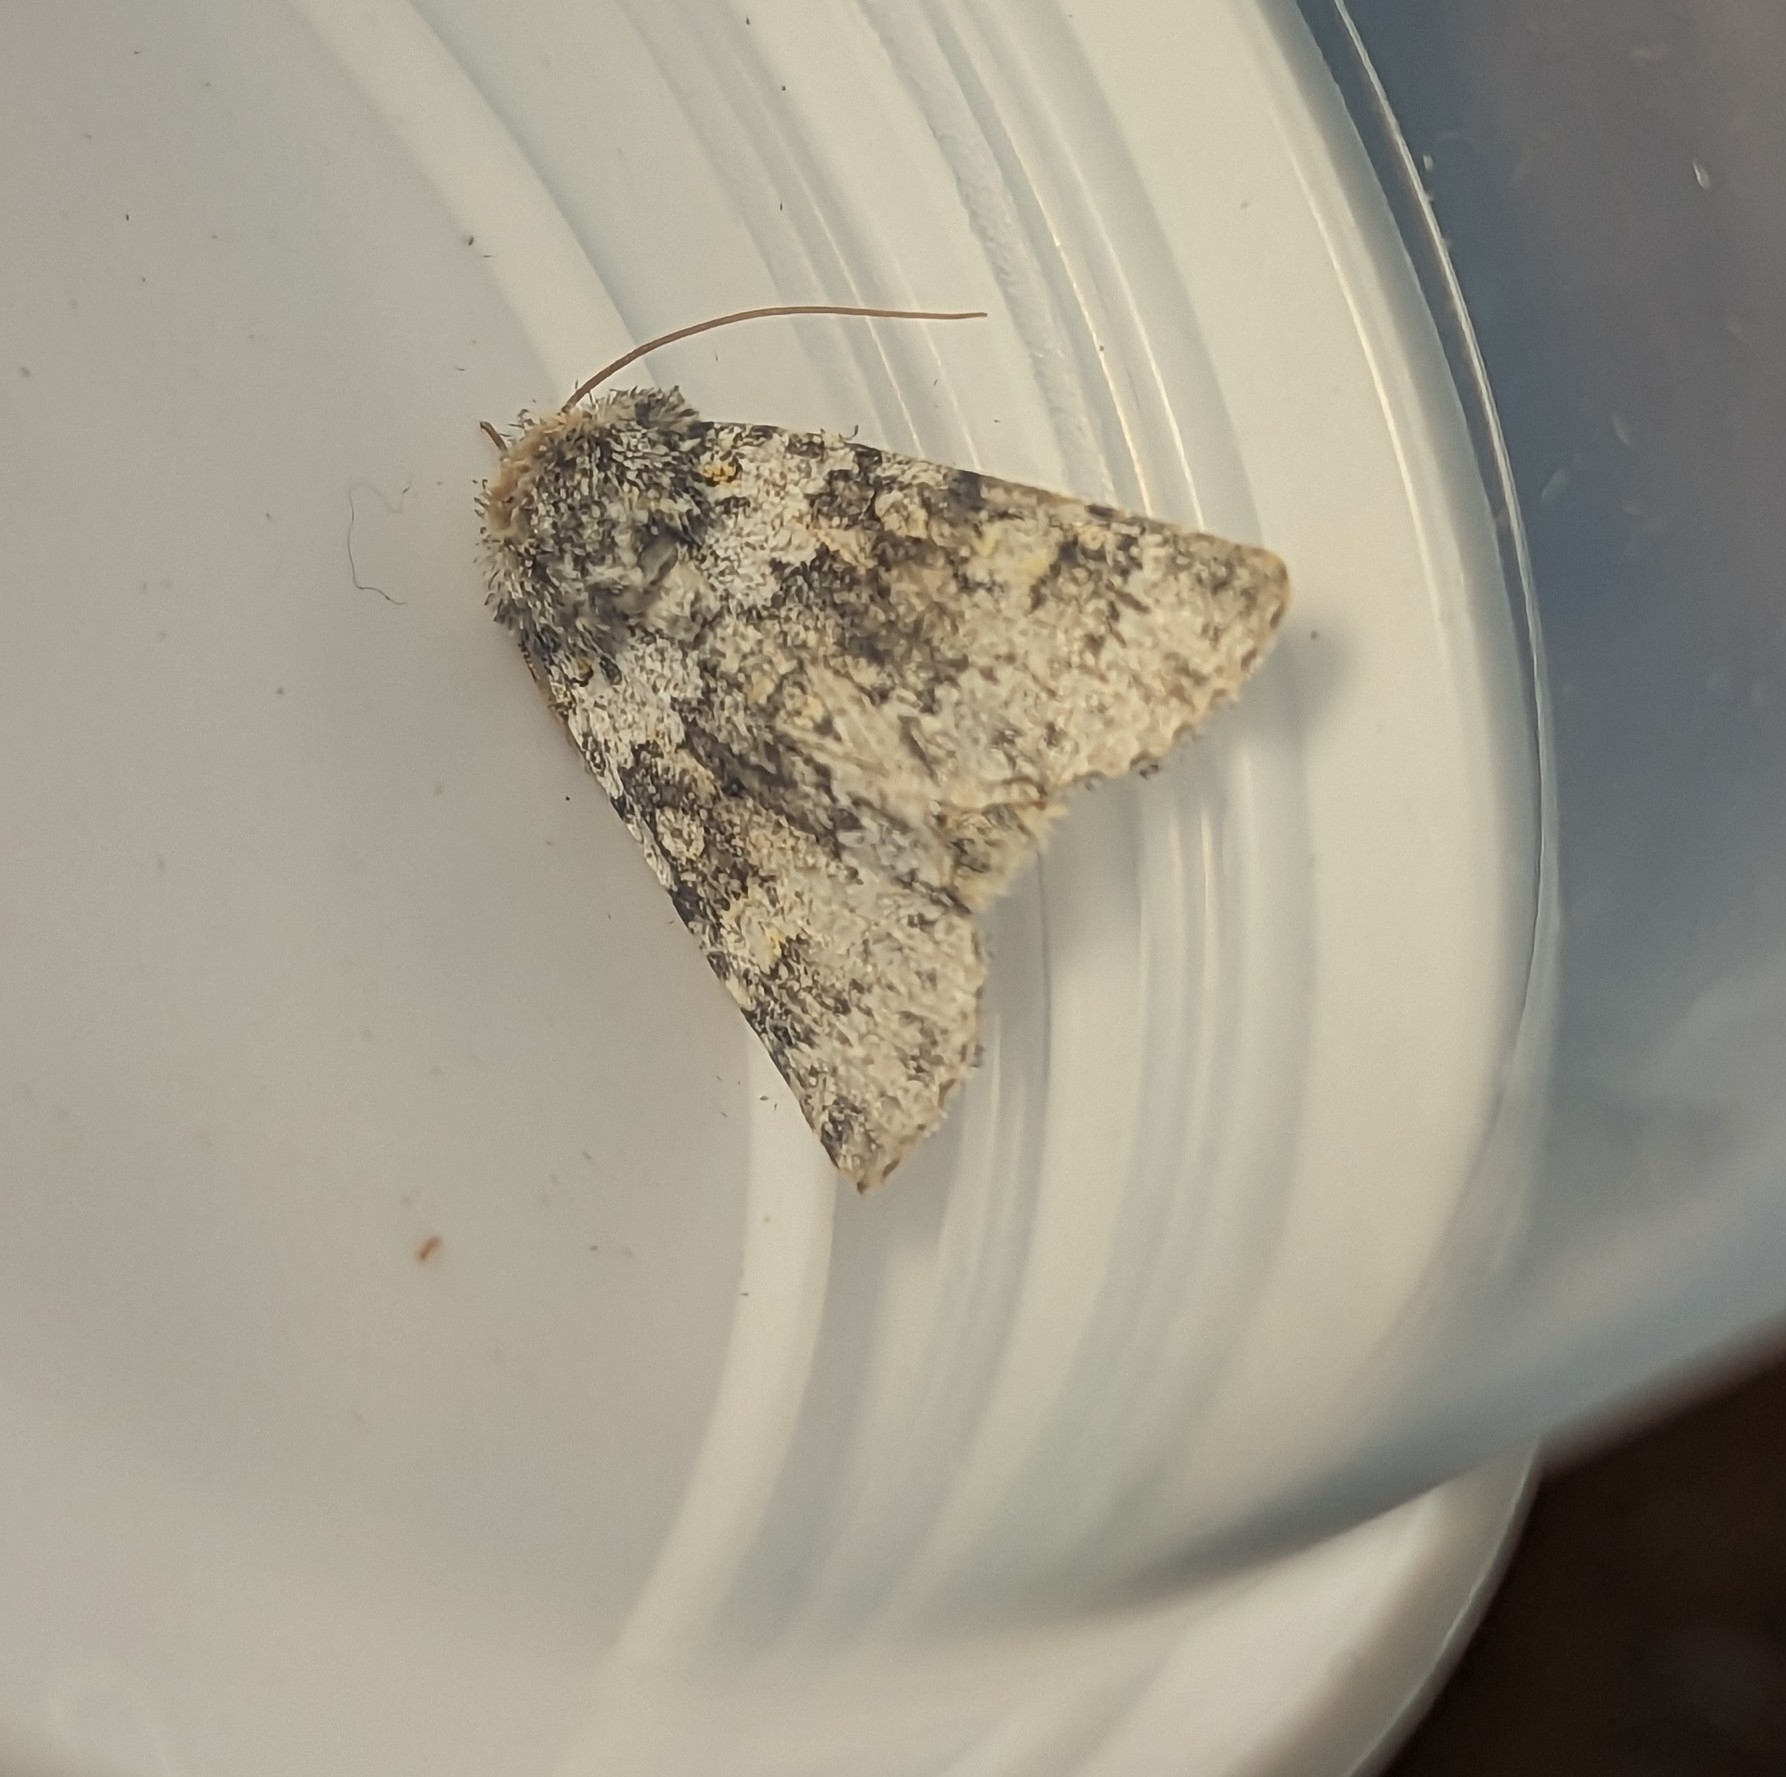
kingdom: Animalia
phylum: Arthropoda
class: Insecta
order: Lepidoptera
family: Noctuidae
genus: Hecatera
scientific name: Hecatera dysodea
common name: Small ranunculus
